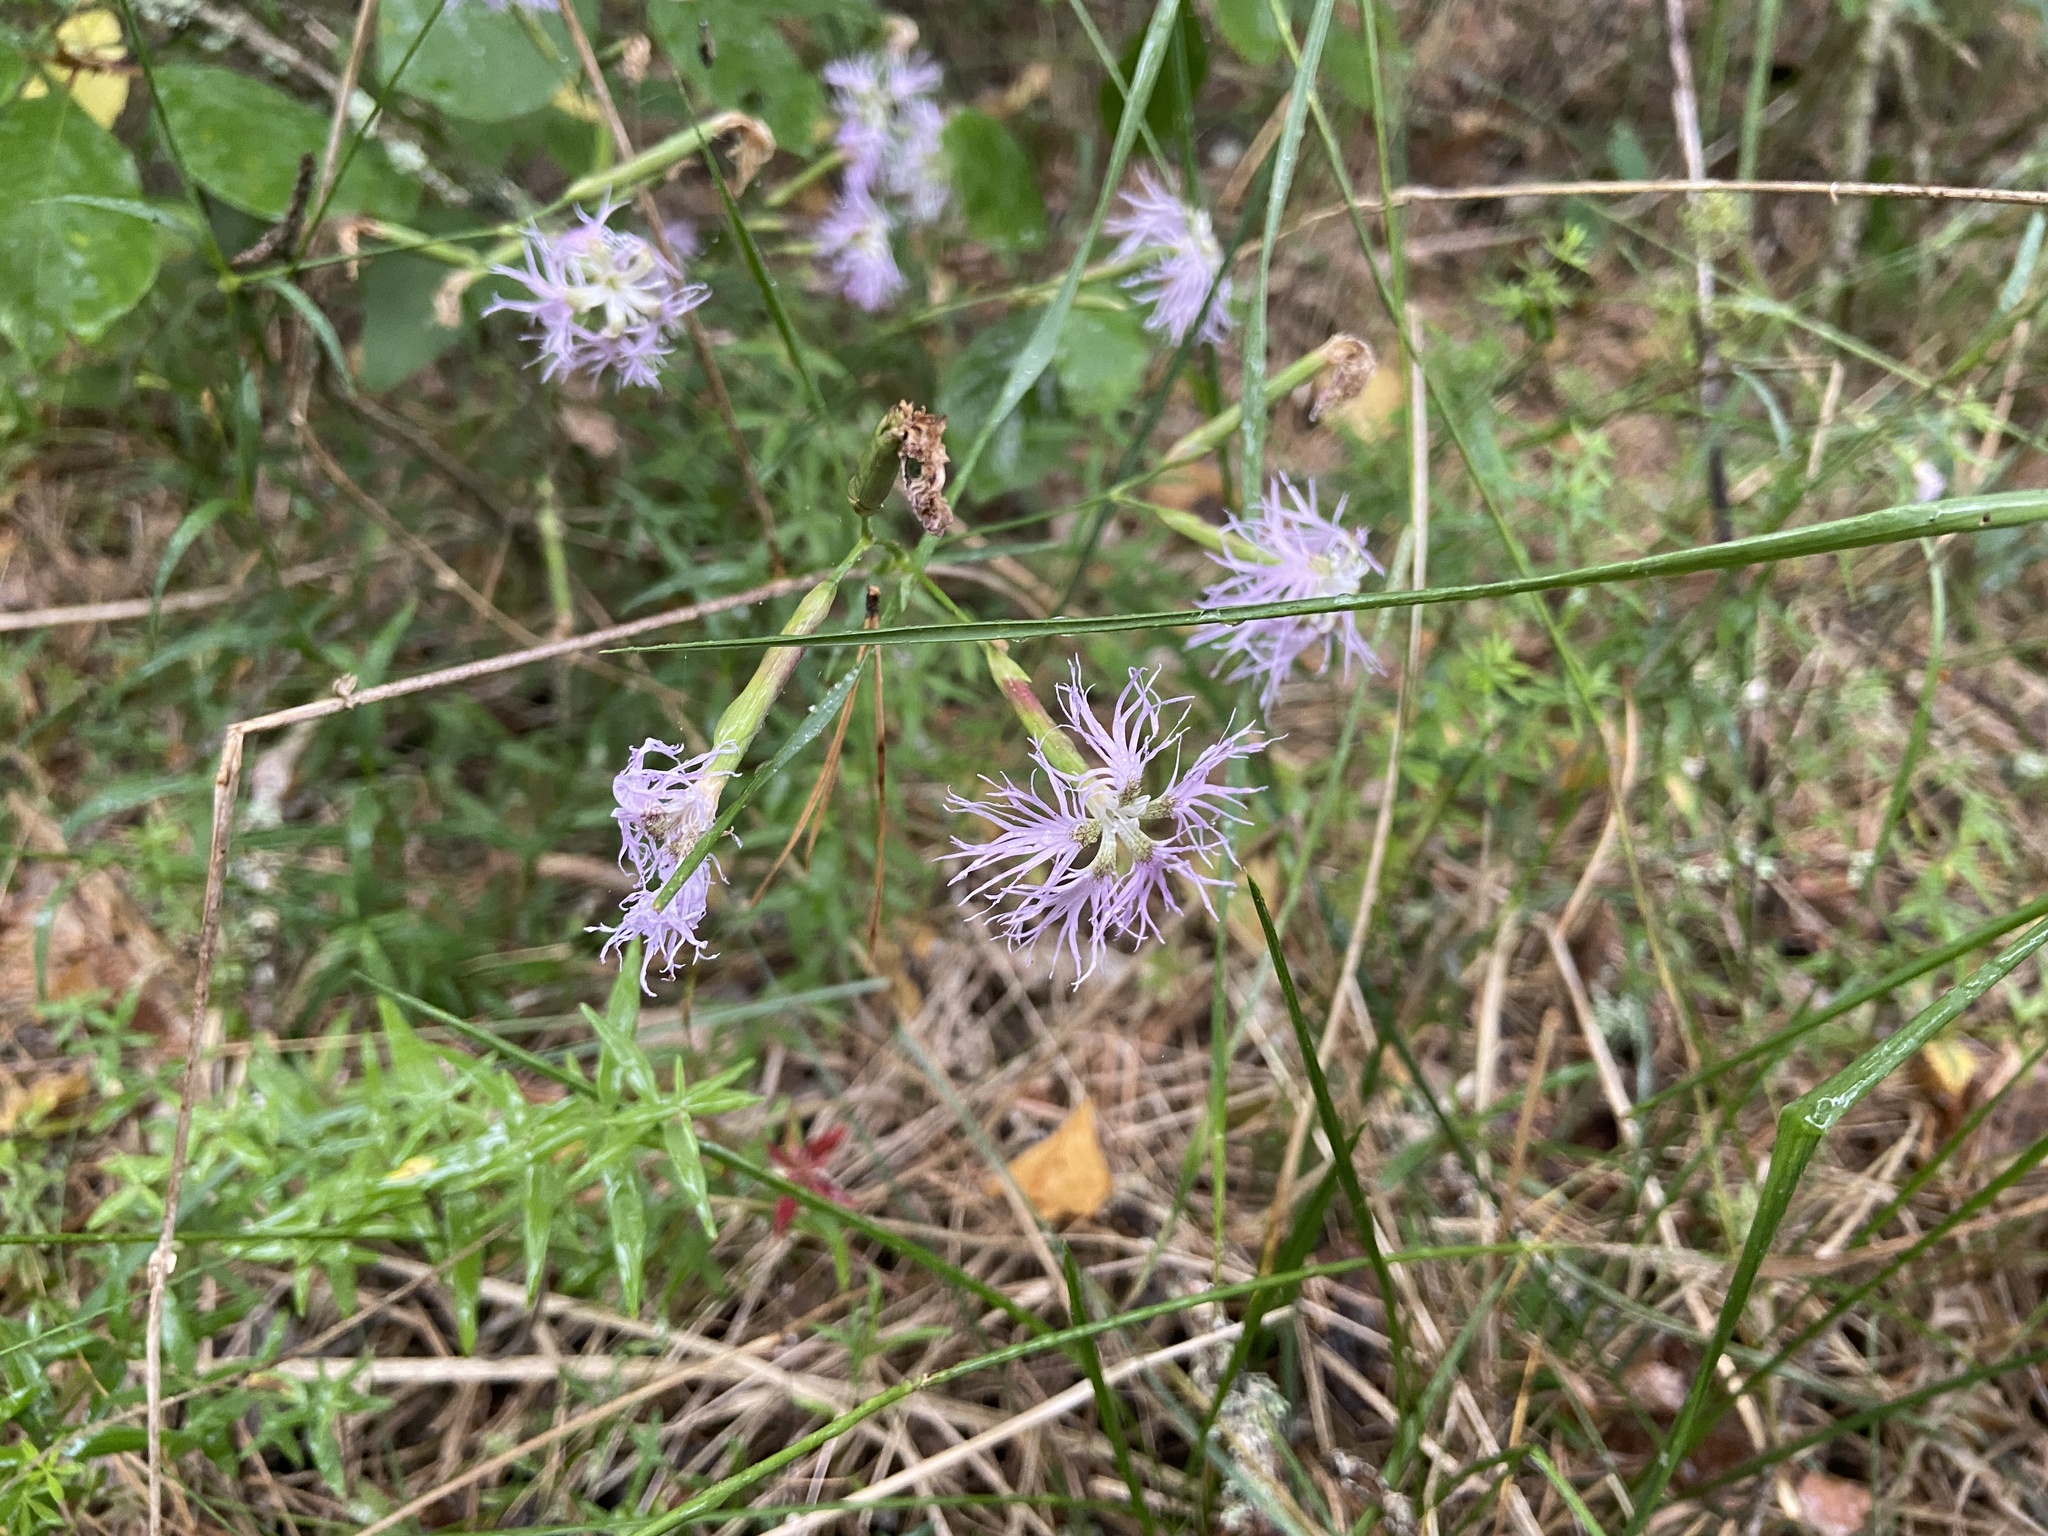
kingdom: Plantae
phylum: Tracheophyta
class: Magnoliopsida
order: Caryophyllales
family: Caryophyllaceae
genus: Dianthus
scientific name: Dianthus superbus
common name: Fringed pink
